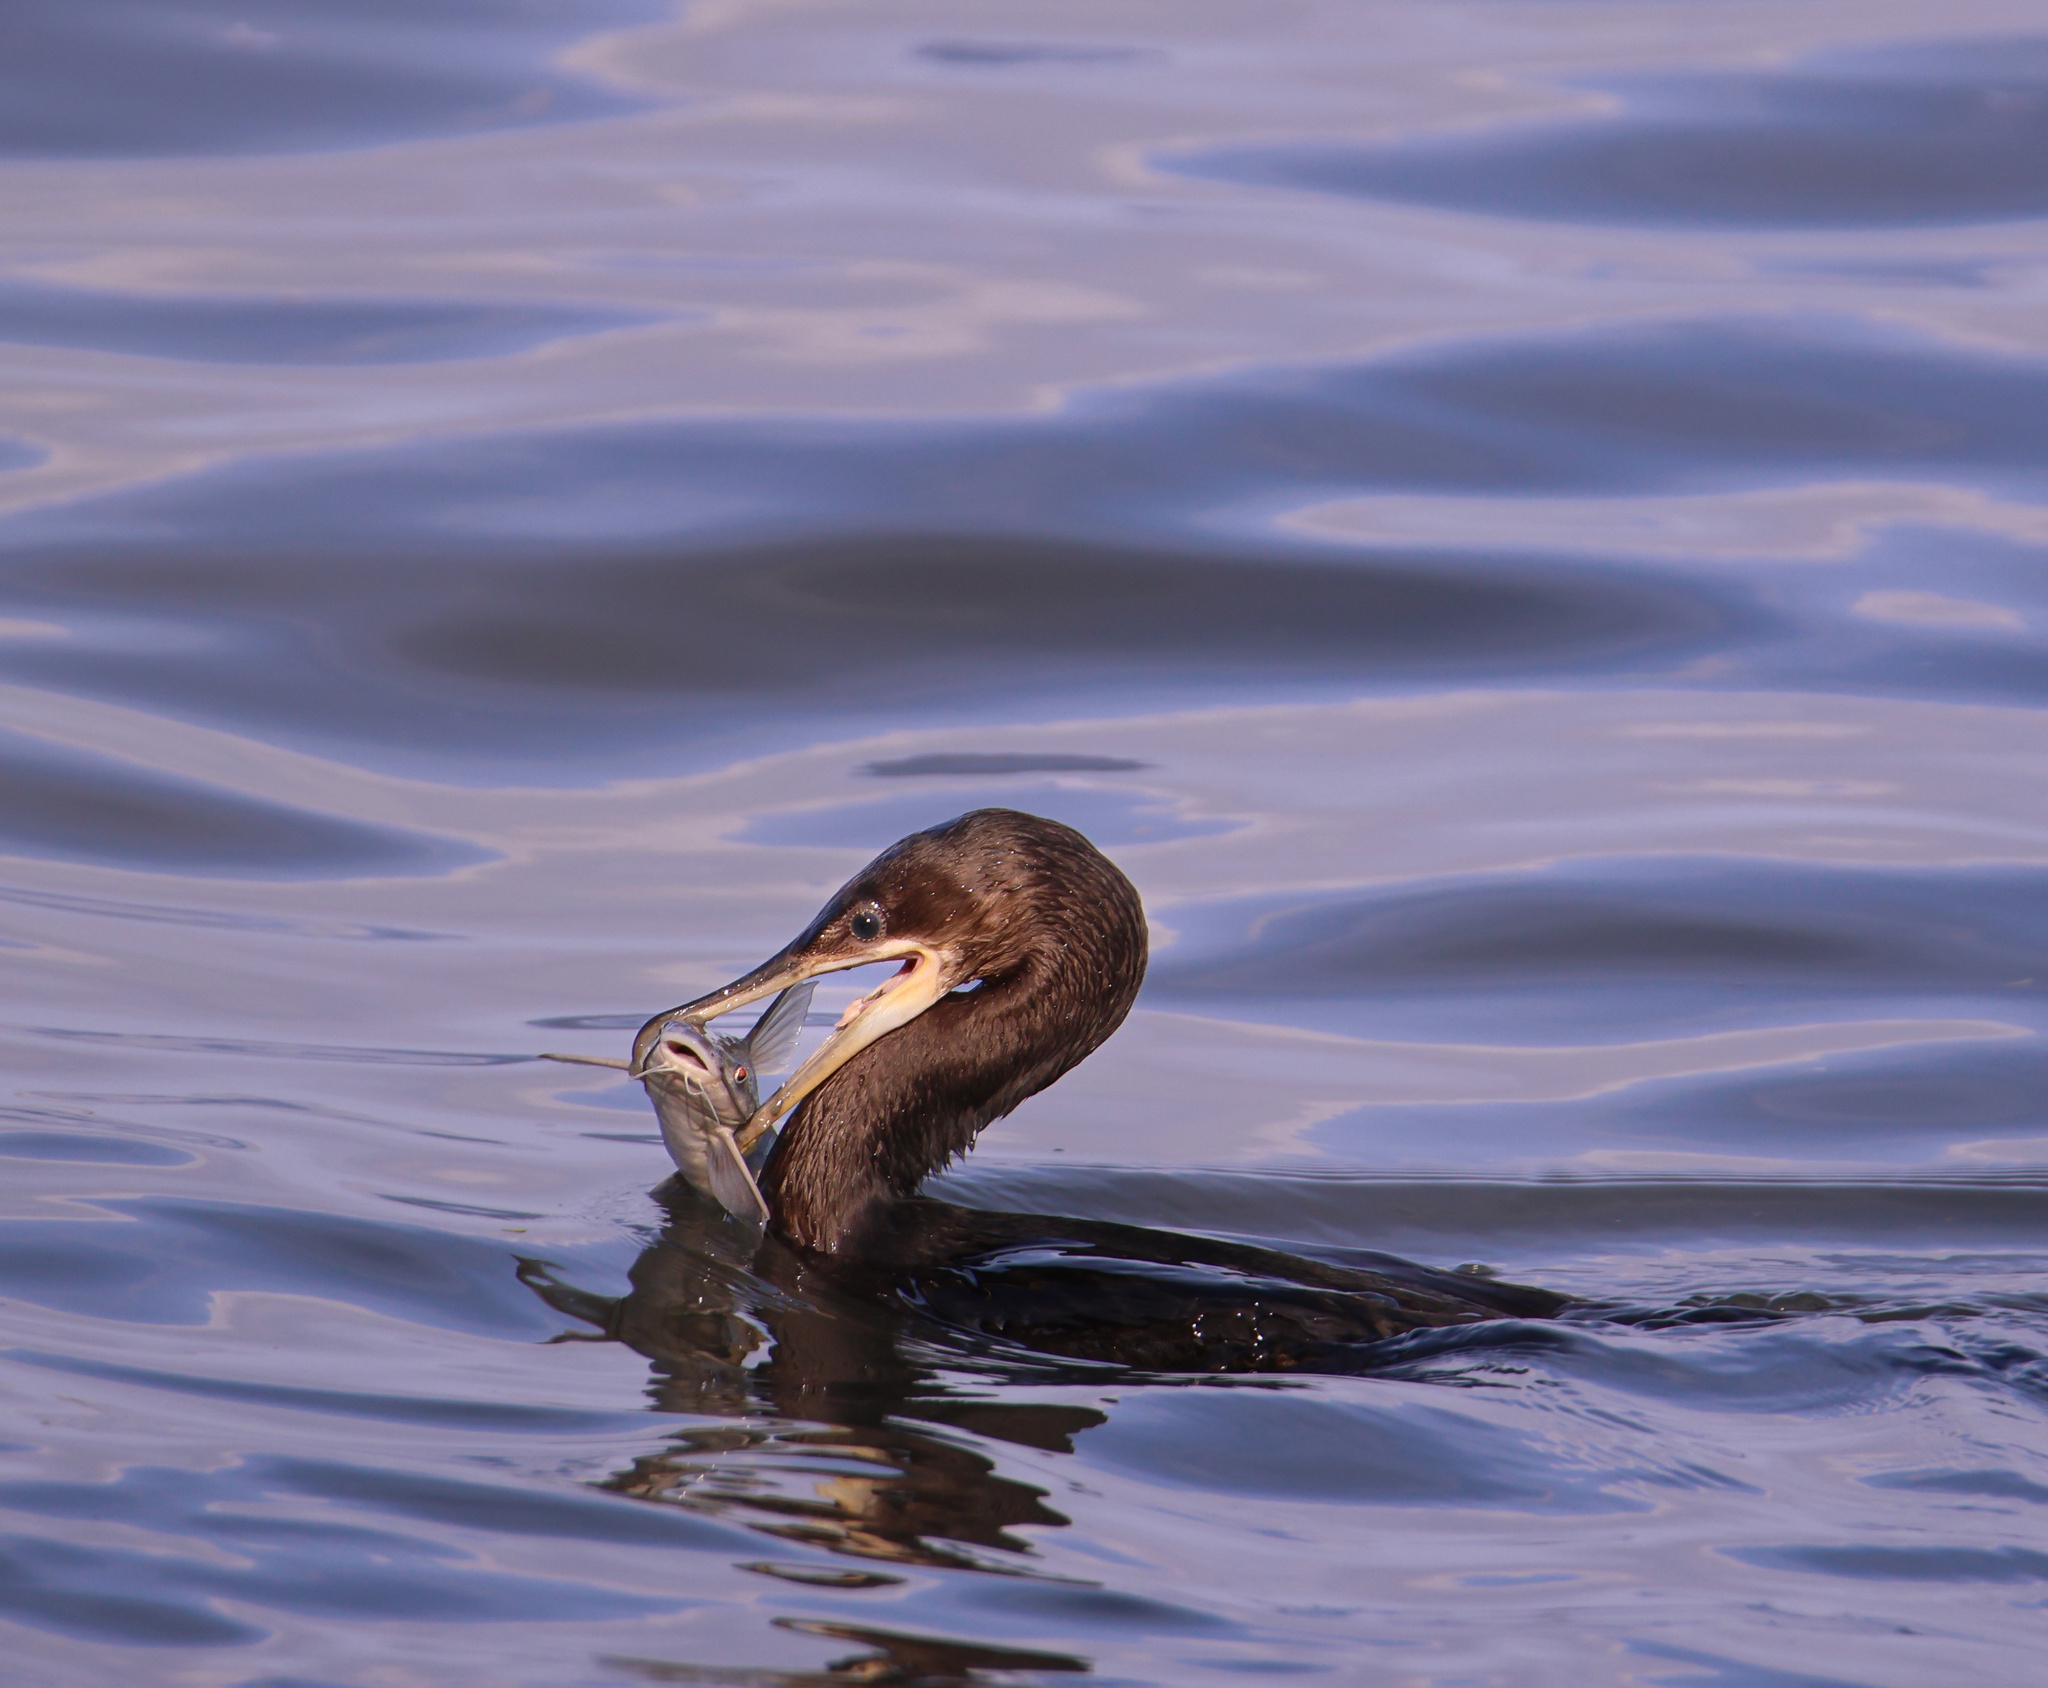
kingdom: Animalia
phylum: Chordata
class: Aves
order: Suliformes
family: Phalacrocoracidae
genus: Phalacrocorax
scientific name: Phalacrocorax brasilianus
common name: Neotropic cormorant
